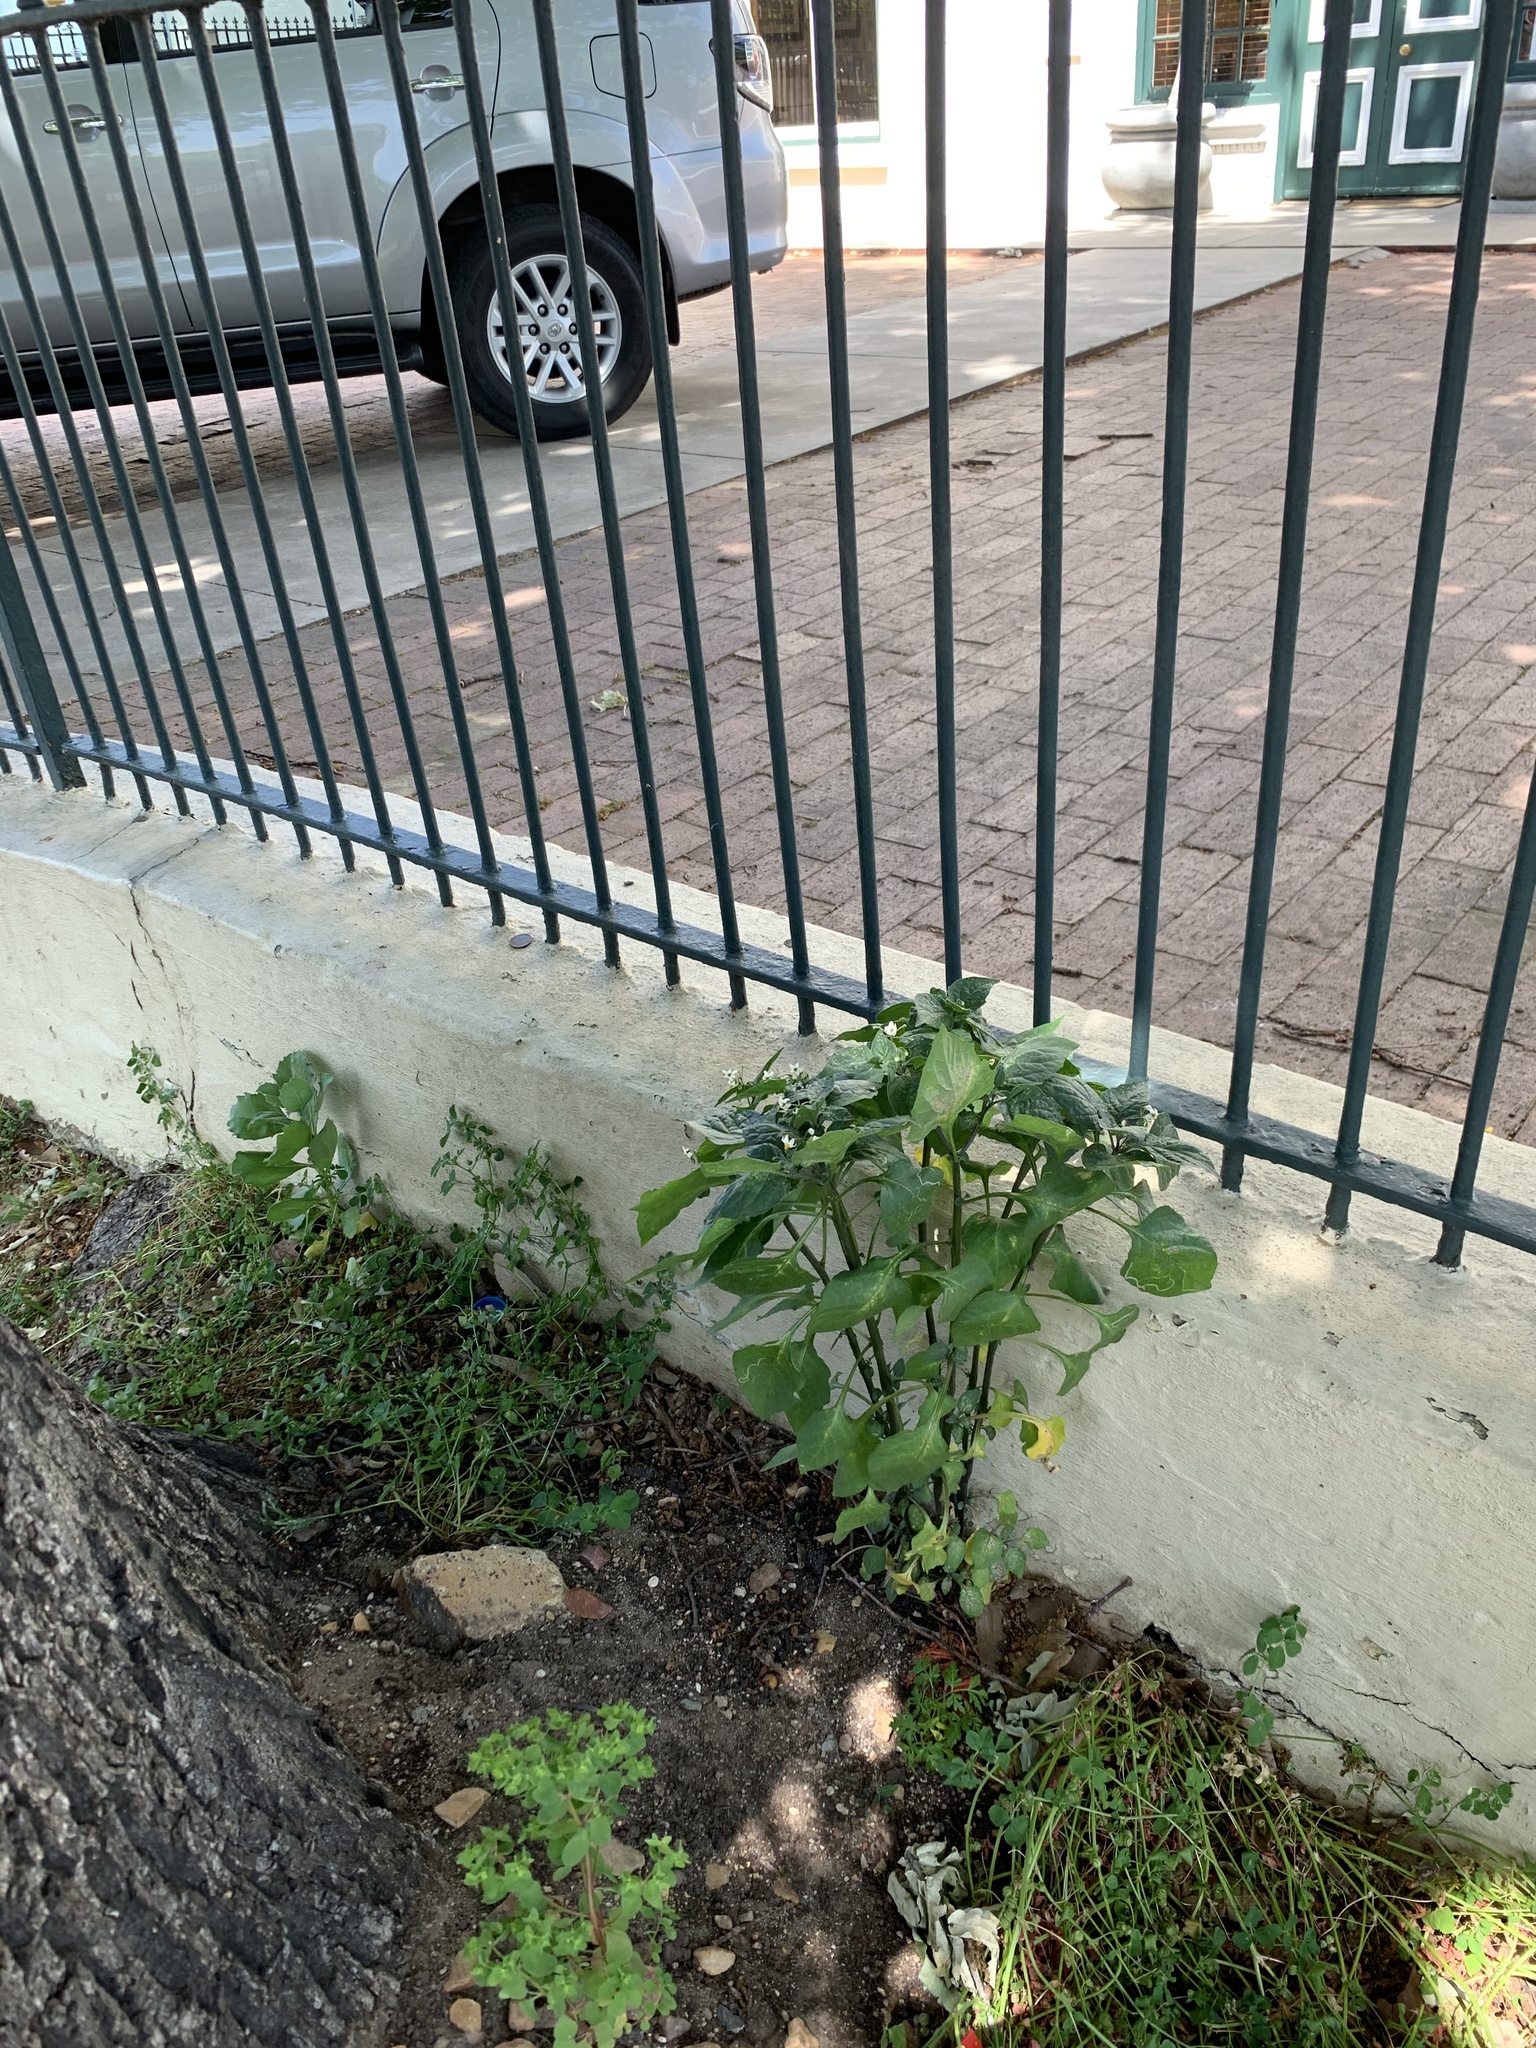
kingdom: Plantae
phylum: Tracheophyta
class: Magnoliopsida
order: Solanales
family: Solanaceae
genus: Solanum
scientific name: Solanum nigrum
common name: Black nightshade
